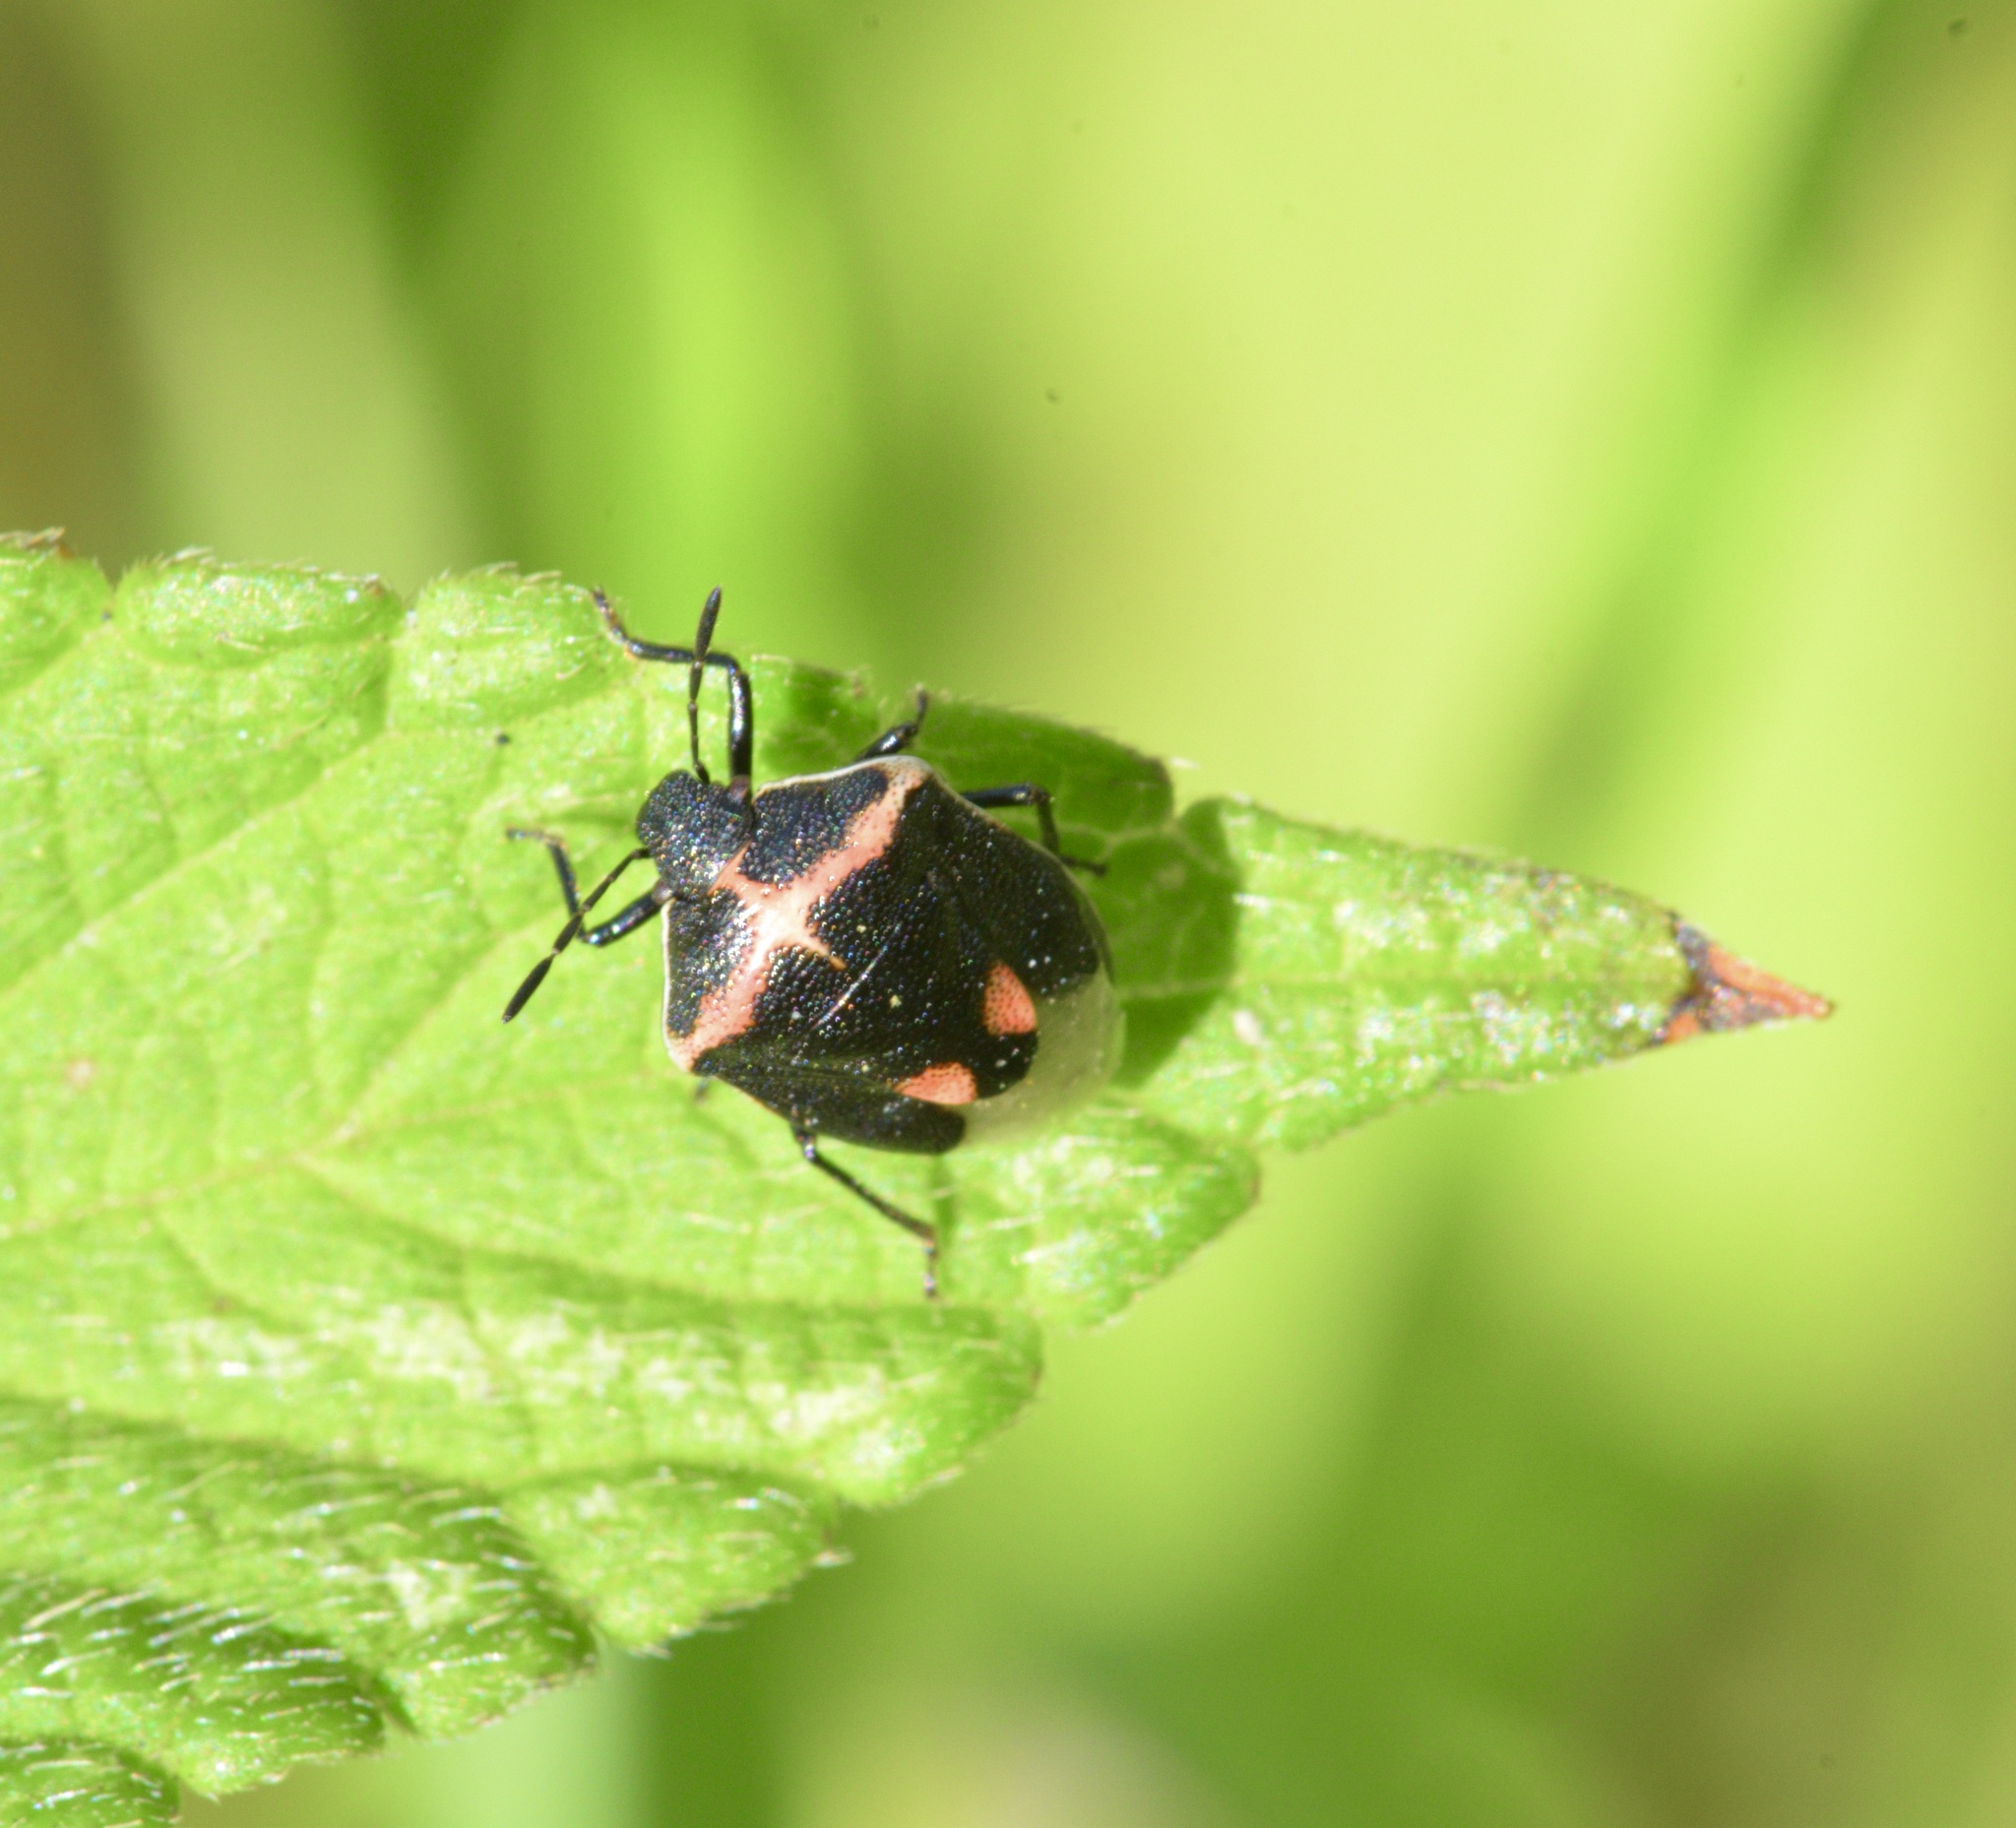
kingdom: Animalia
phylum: Arthropoda
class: Insecta
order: Hemiptera
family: Pentatomidae
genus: Cosmopepla
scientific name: Cosmopepla lintneriana
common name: Twice-stabbed stink bug
